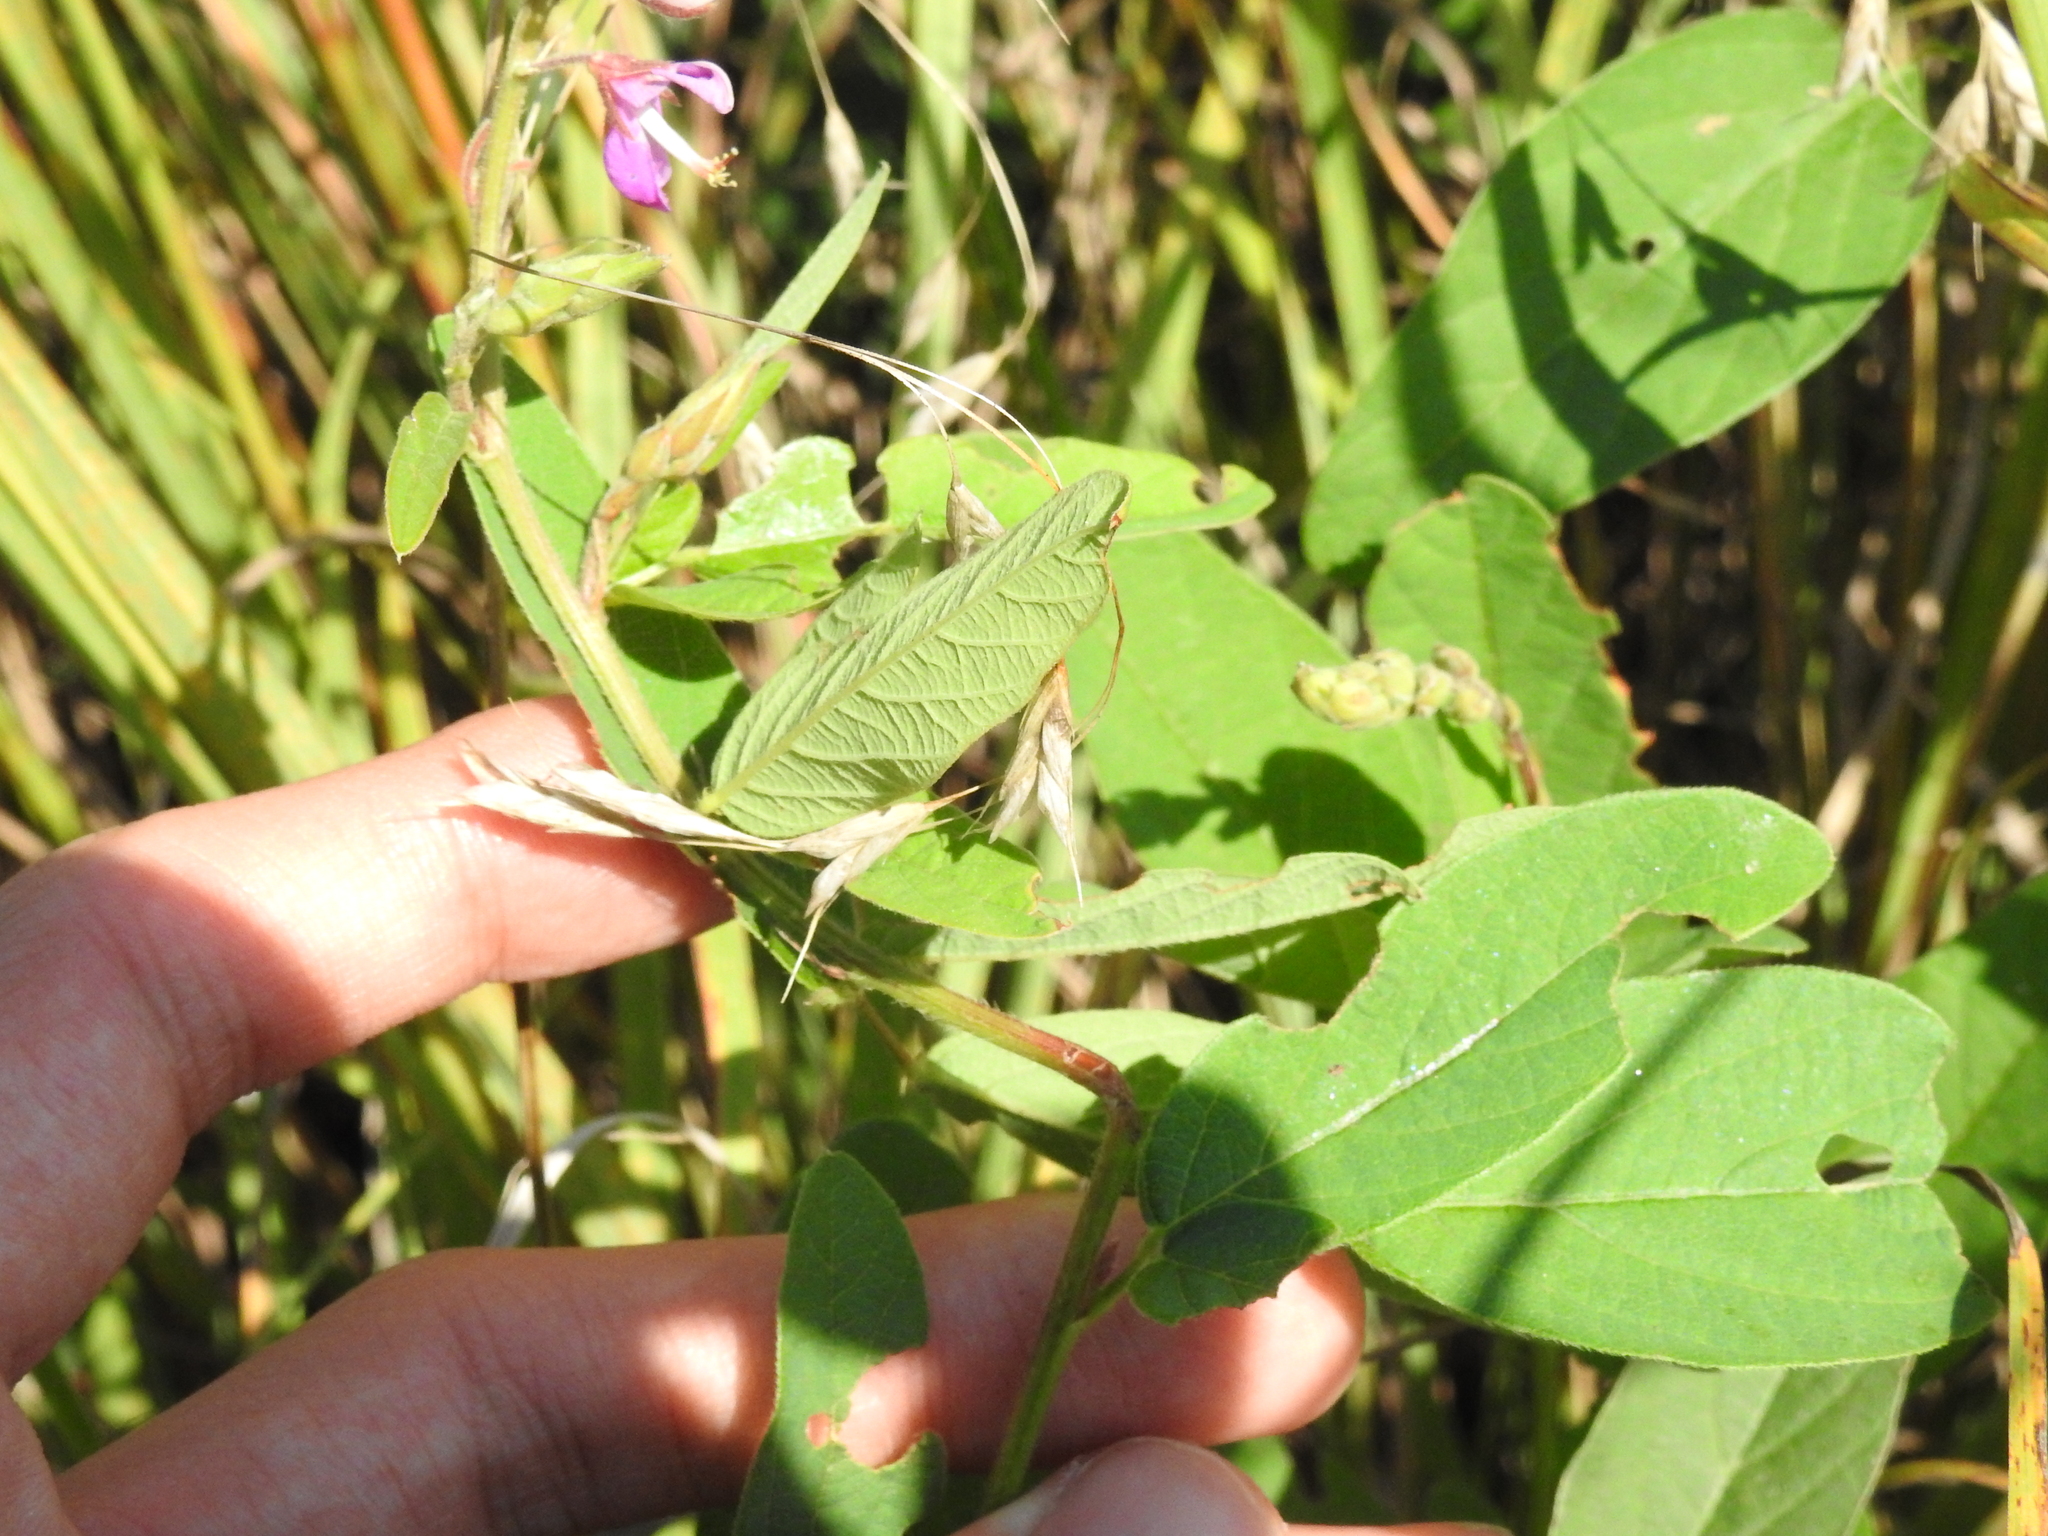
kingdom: Plantae
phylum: Tracheophyta
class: Magnoliopsida
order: Fabales
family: Fabaceae
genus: Desmodium
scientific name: Desmodium canadense
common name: Canada tick-trefoil
